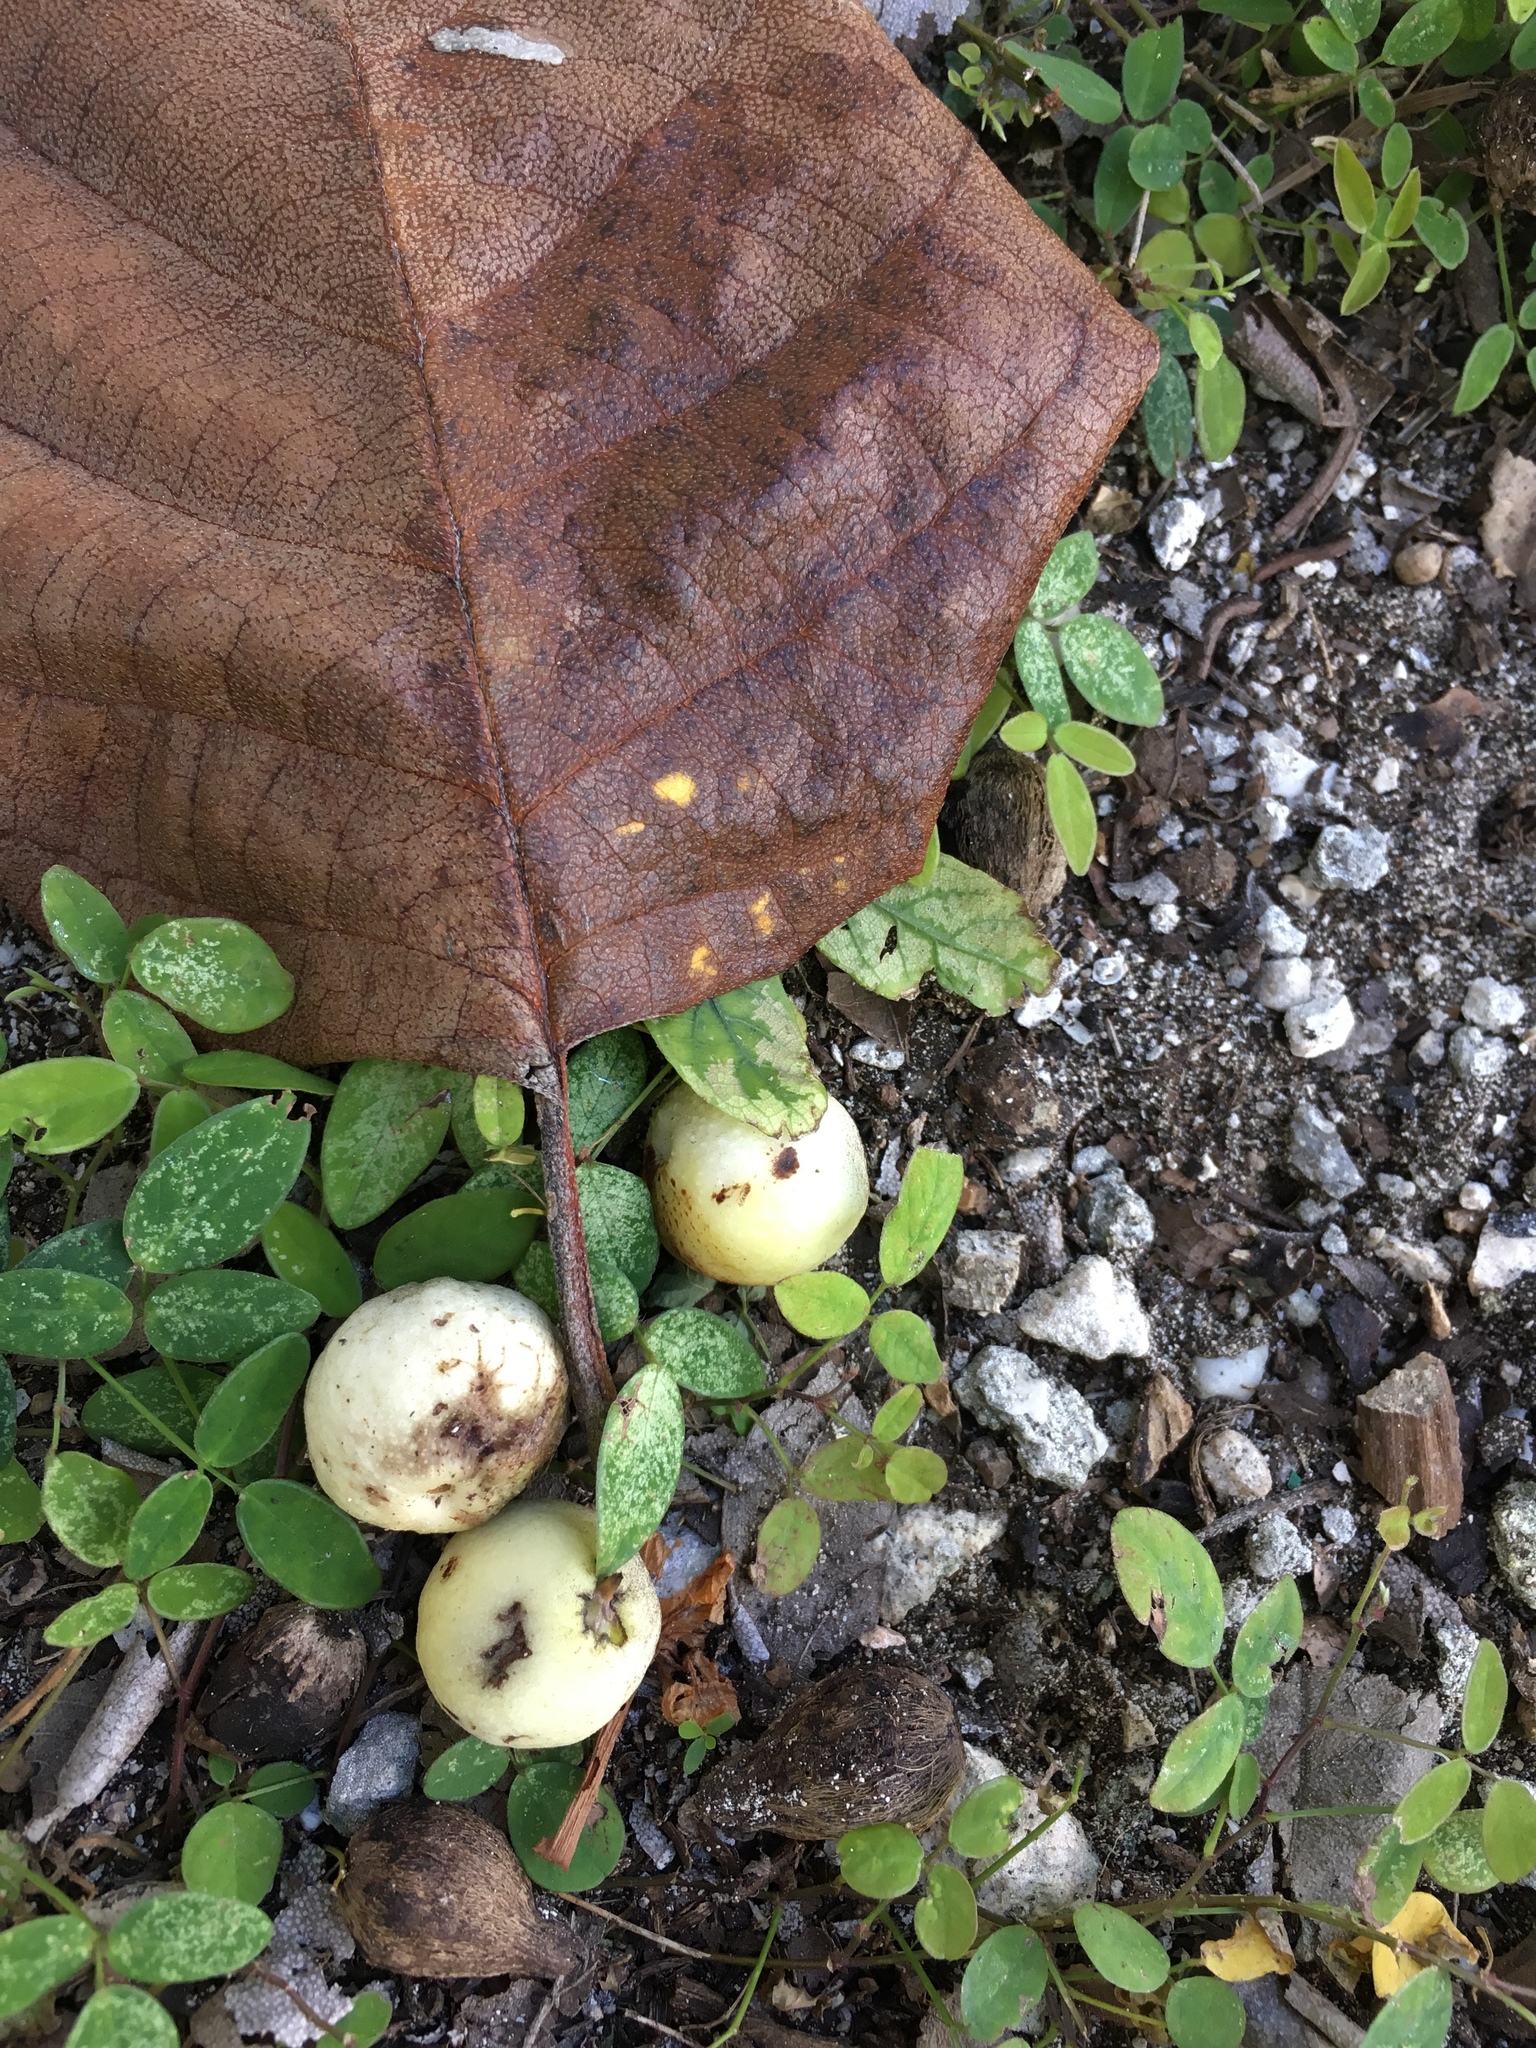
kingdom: Plantae
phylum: Tracheophyta
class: Magnoliopsida
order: Boraginales
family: Cordiaceae
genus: Cordia
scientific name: Cordia sebestena
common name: Largeleaf geigertree
